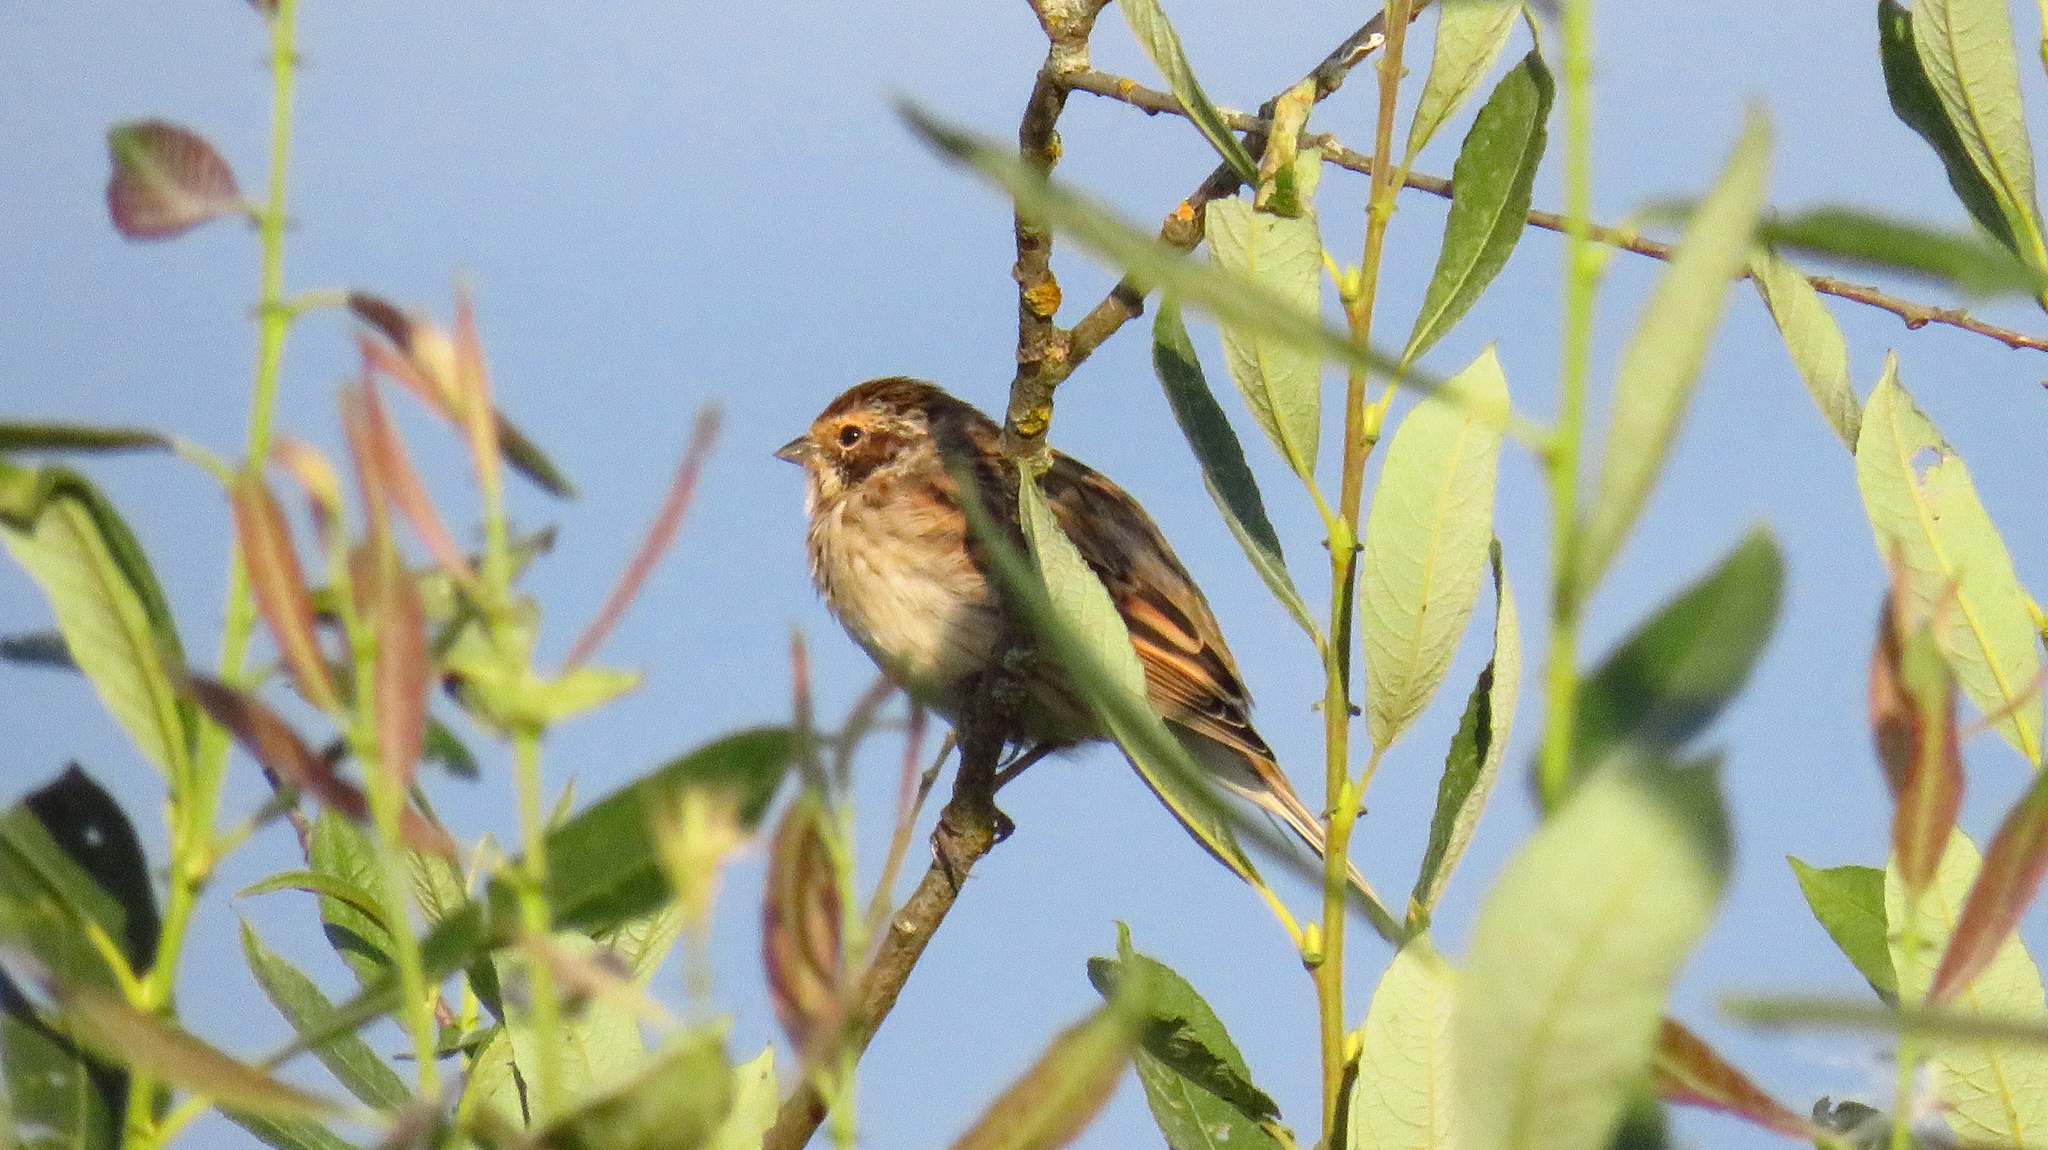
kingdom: Animalia
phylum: Chordata
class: Aves
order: Passeriformes
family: Emberizidae
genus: Emberiza
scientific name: Emberiza schoeniclus
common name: Reed bunting
